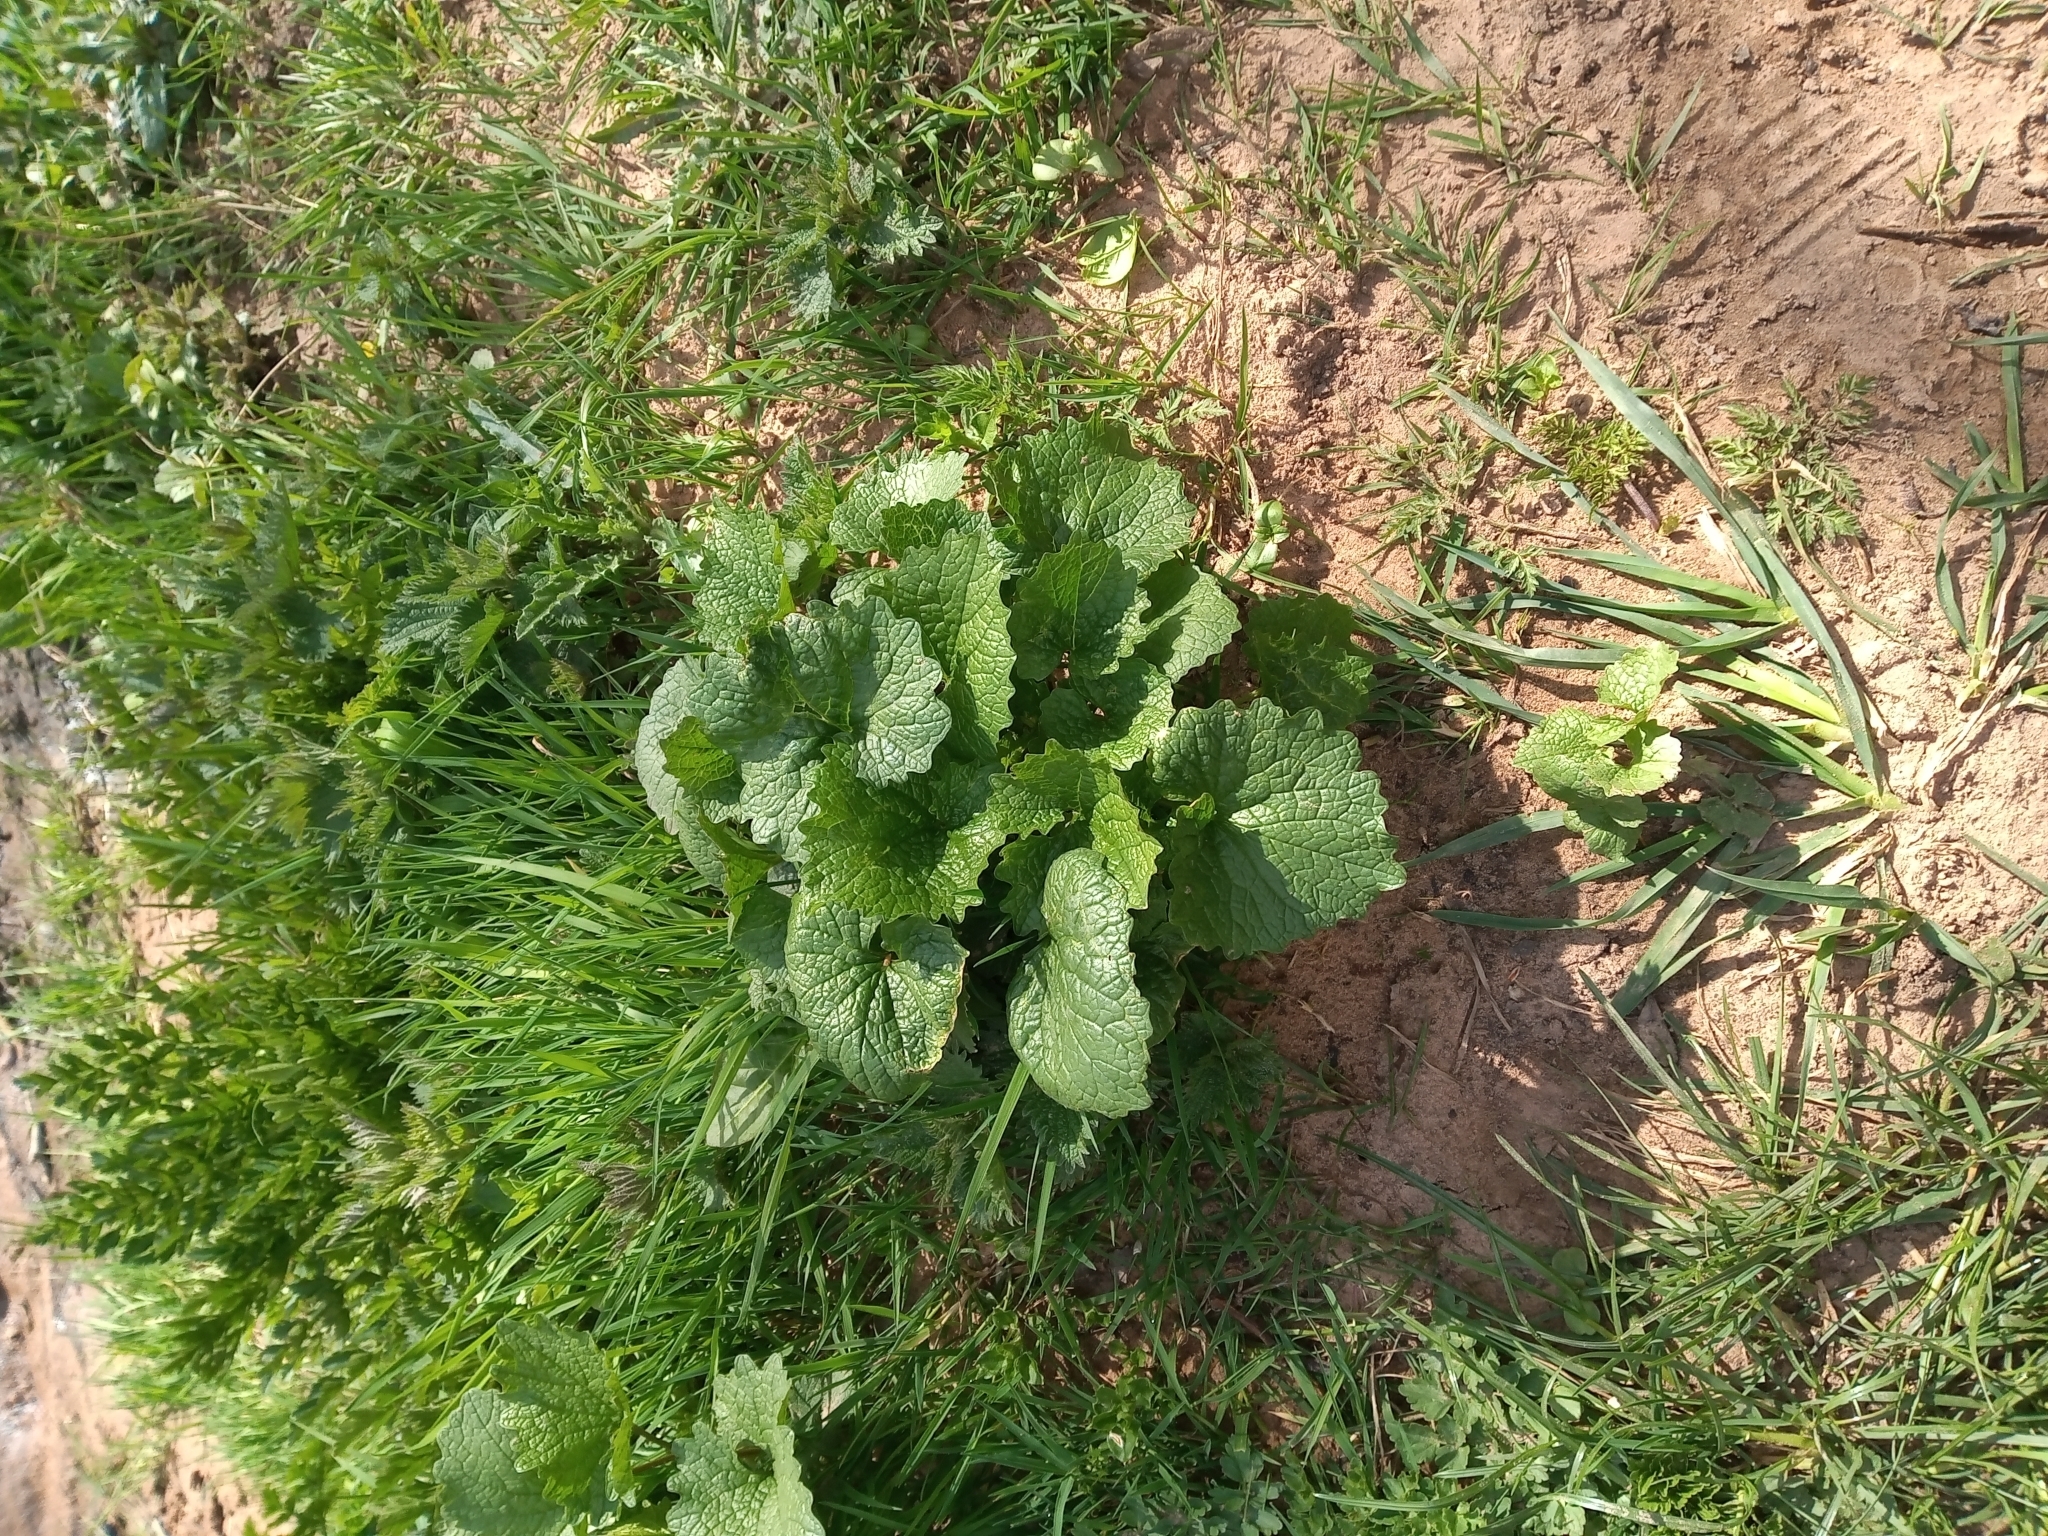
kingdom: Plantae
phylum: Tracheophyta
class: Magnoliopsida
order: Brassicales
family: Brassicaceae
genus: Alliaria
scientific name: Alliaria petiolata
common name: Garlic mustard
